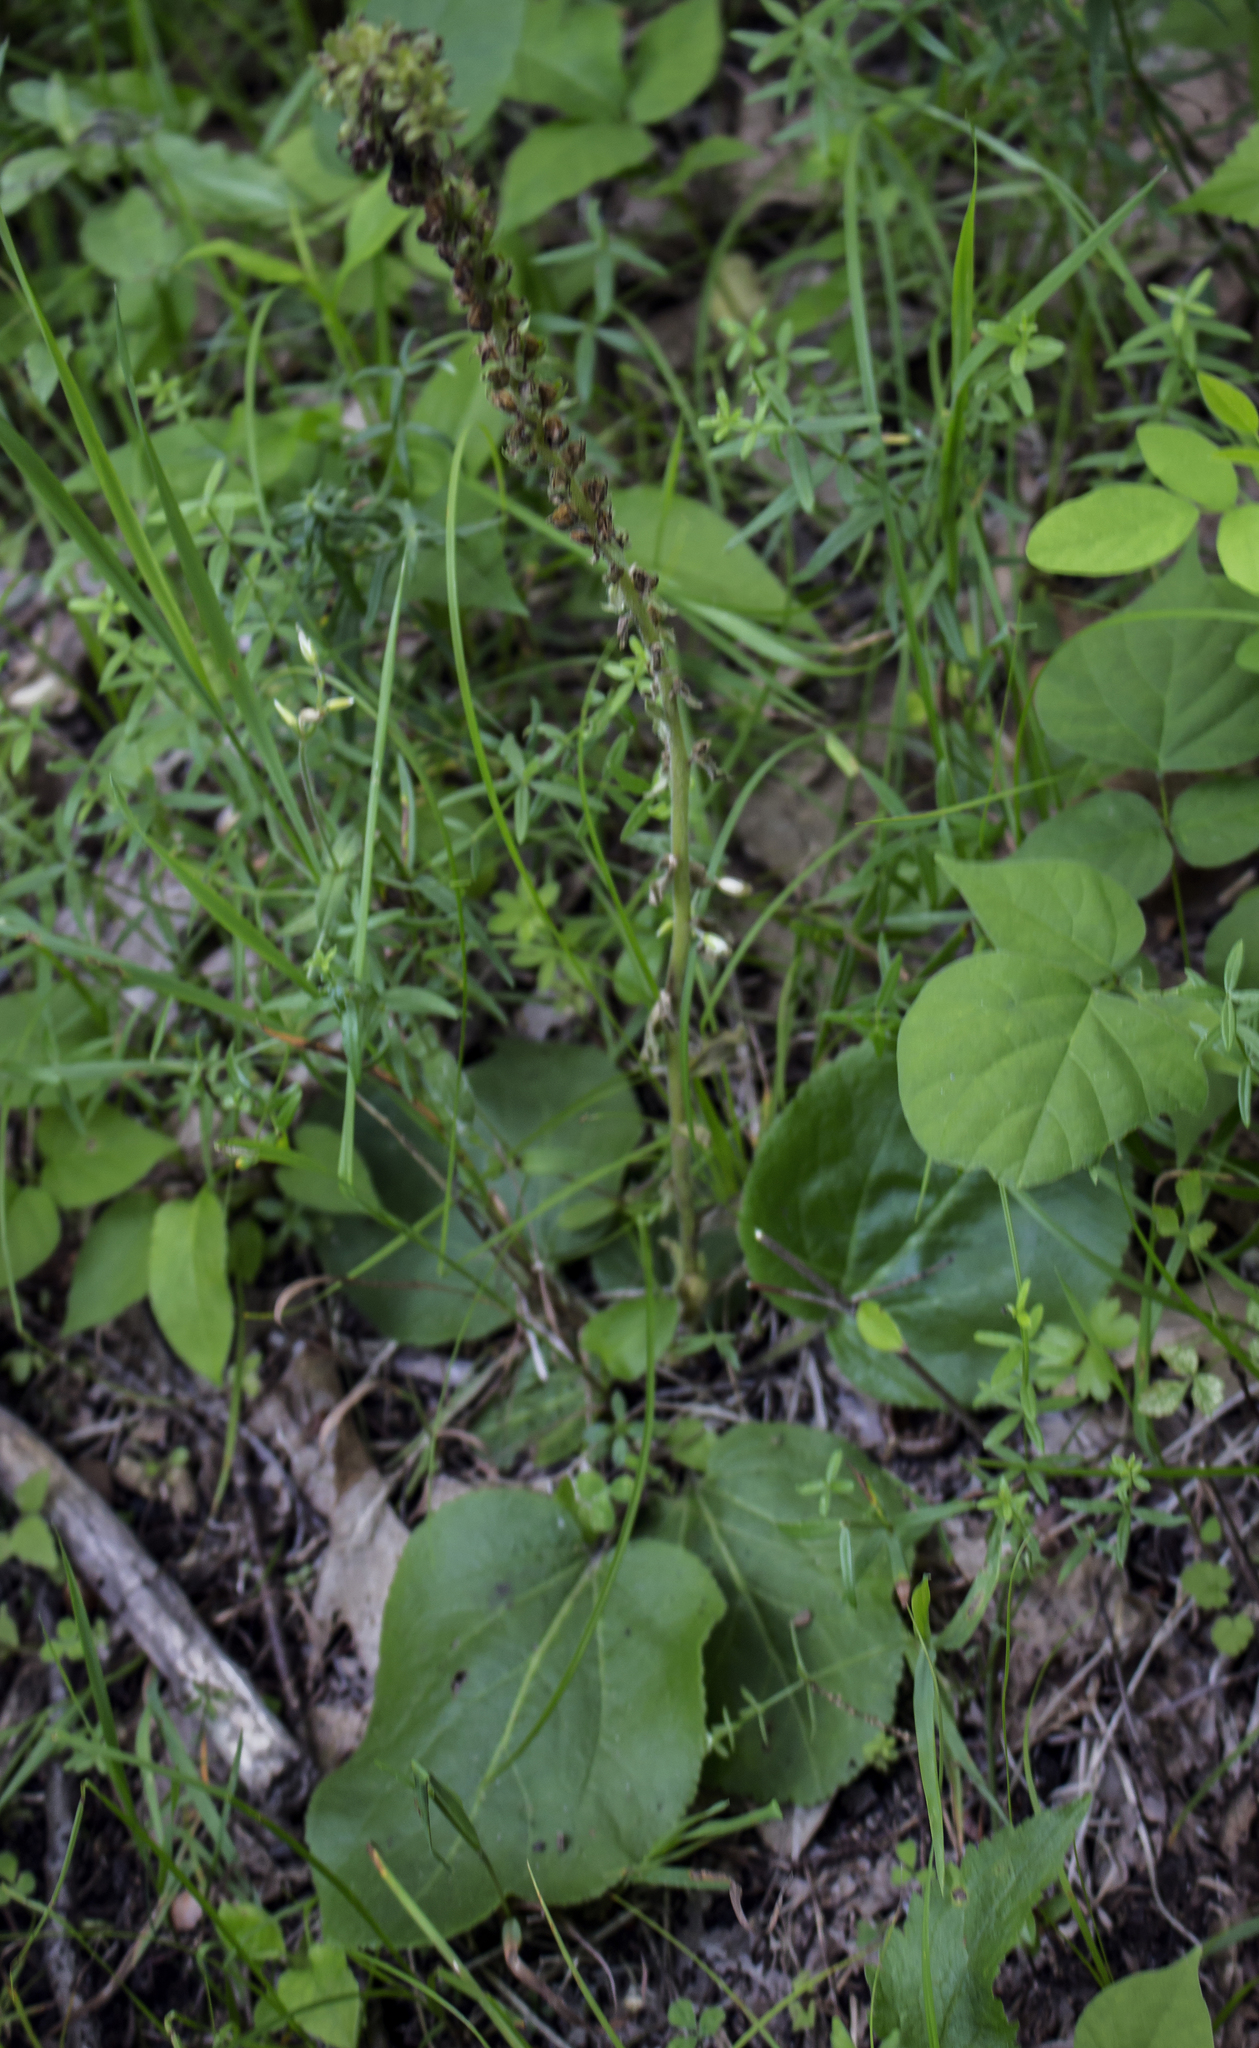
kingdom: Plantae
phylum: Tracheophyta
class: Magnoliopsida
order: Lamiales
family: Plantaginaceae
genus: Synthyris
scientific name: Synthyris bullii
